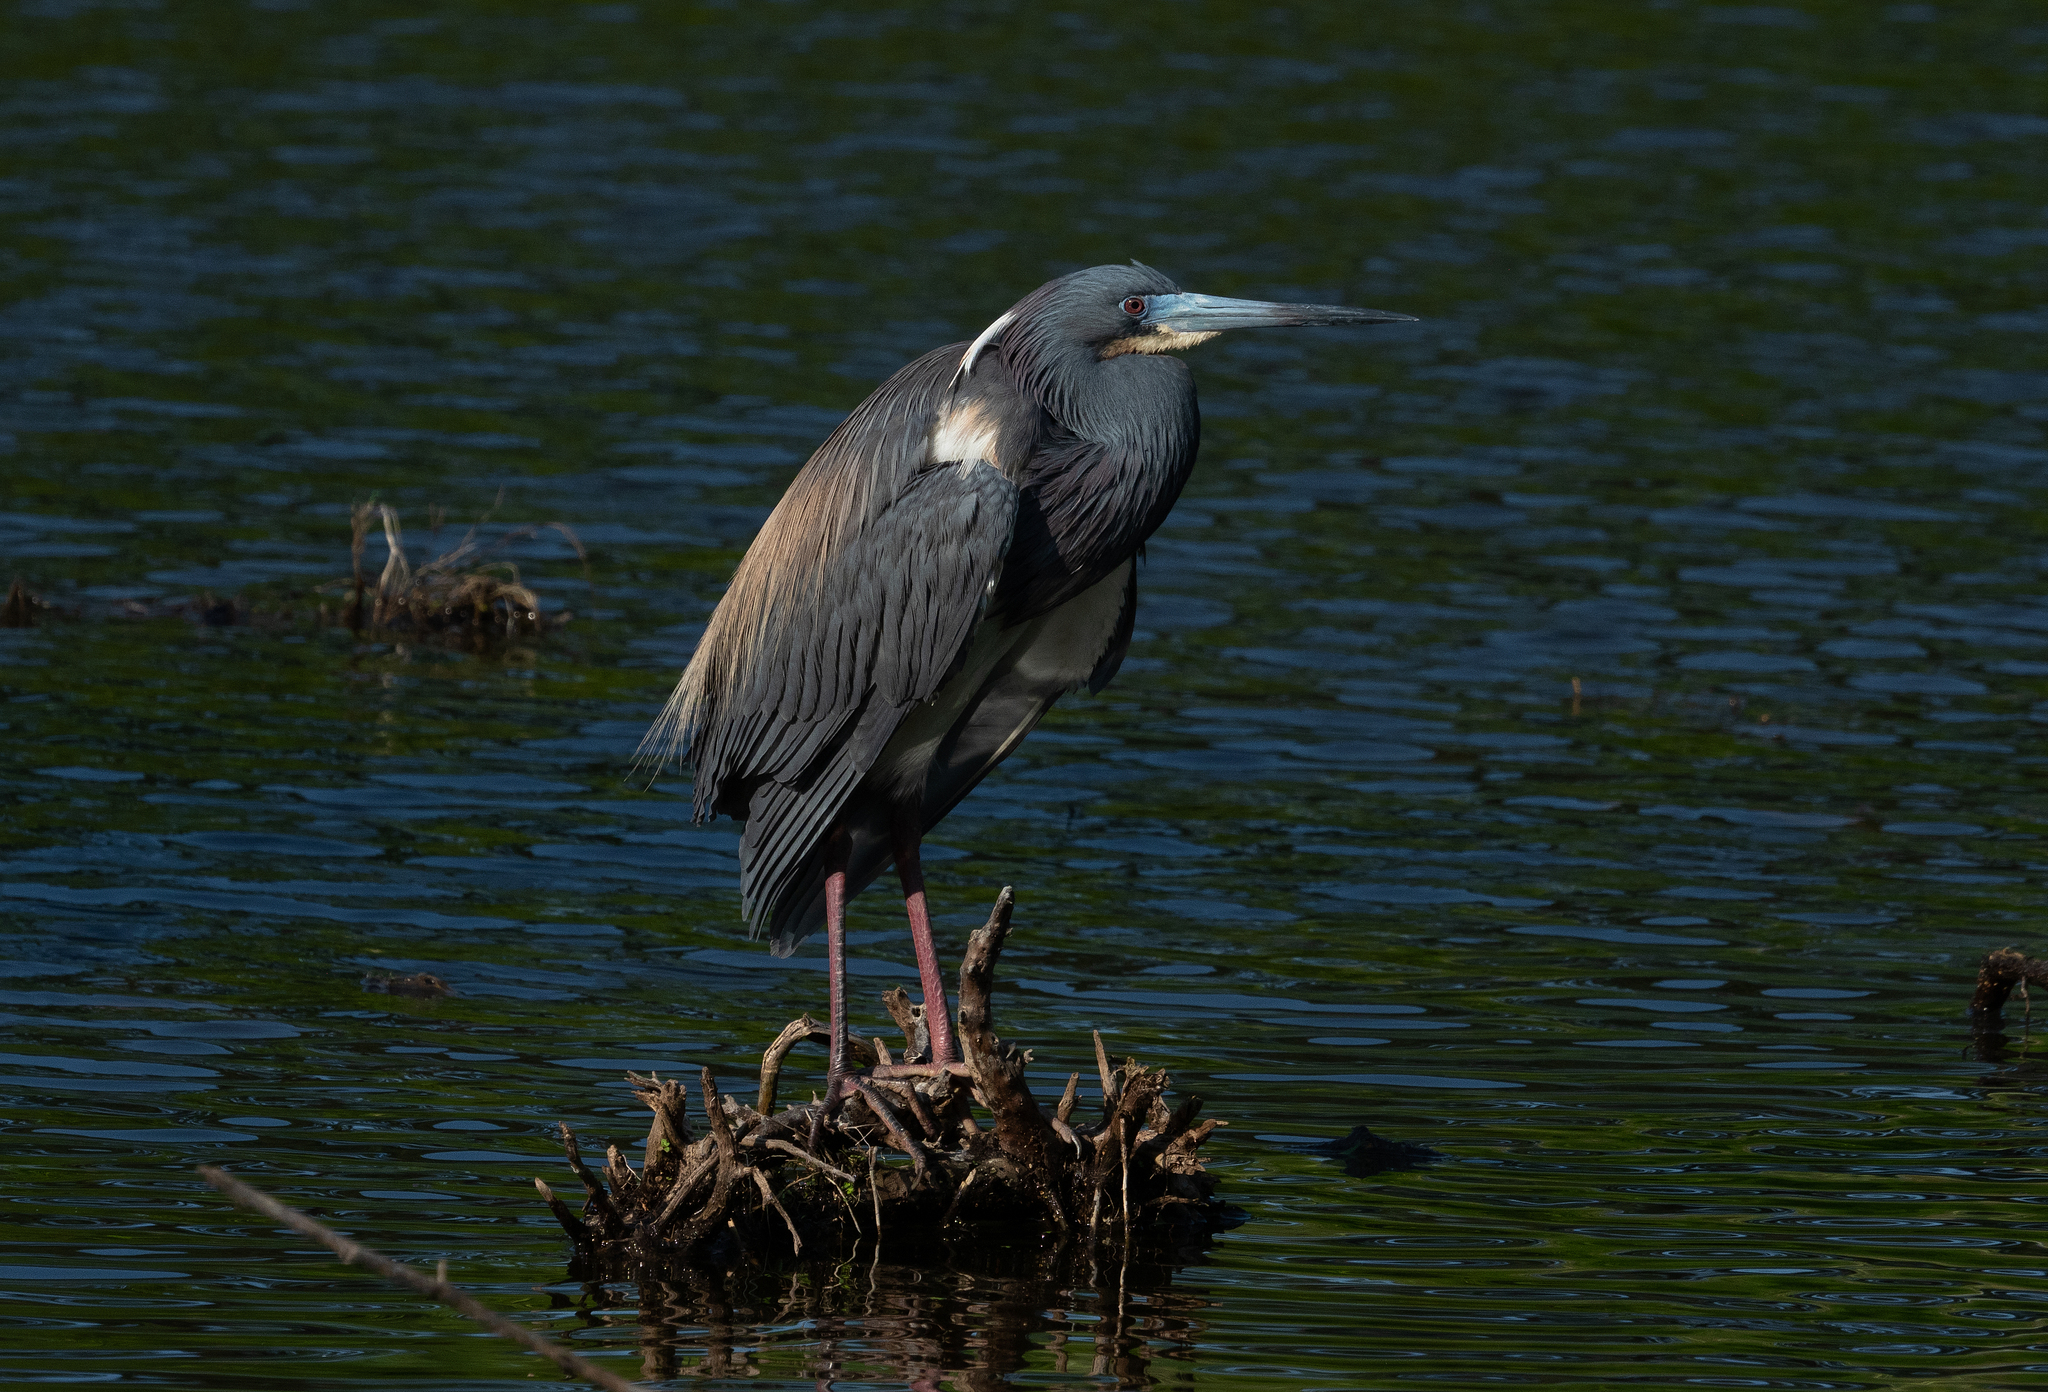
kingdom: Animalia
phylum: Chordata
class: Aves
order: Pelecaniformes
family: Ardeidae
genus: Egretta
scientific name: Egretta tricolor
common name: Tricolored heron
